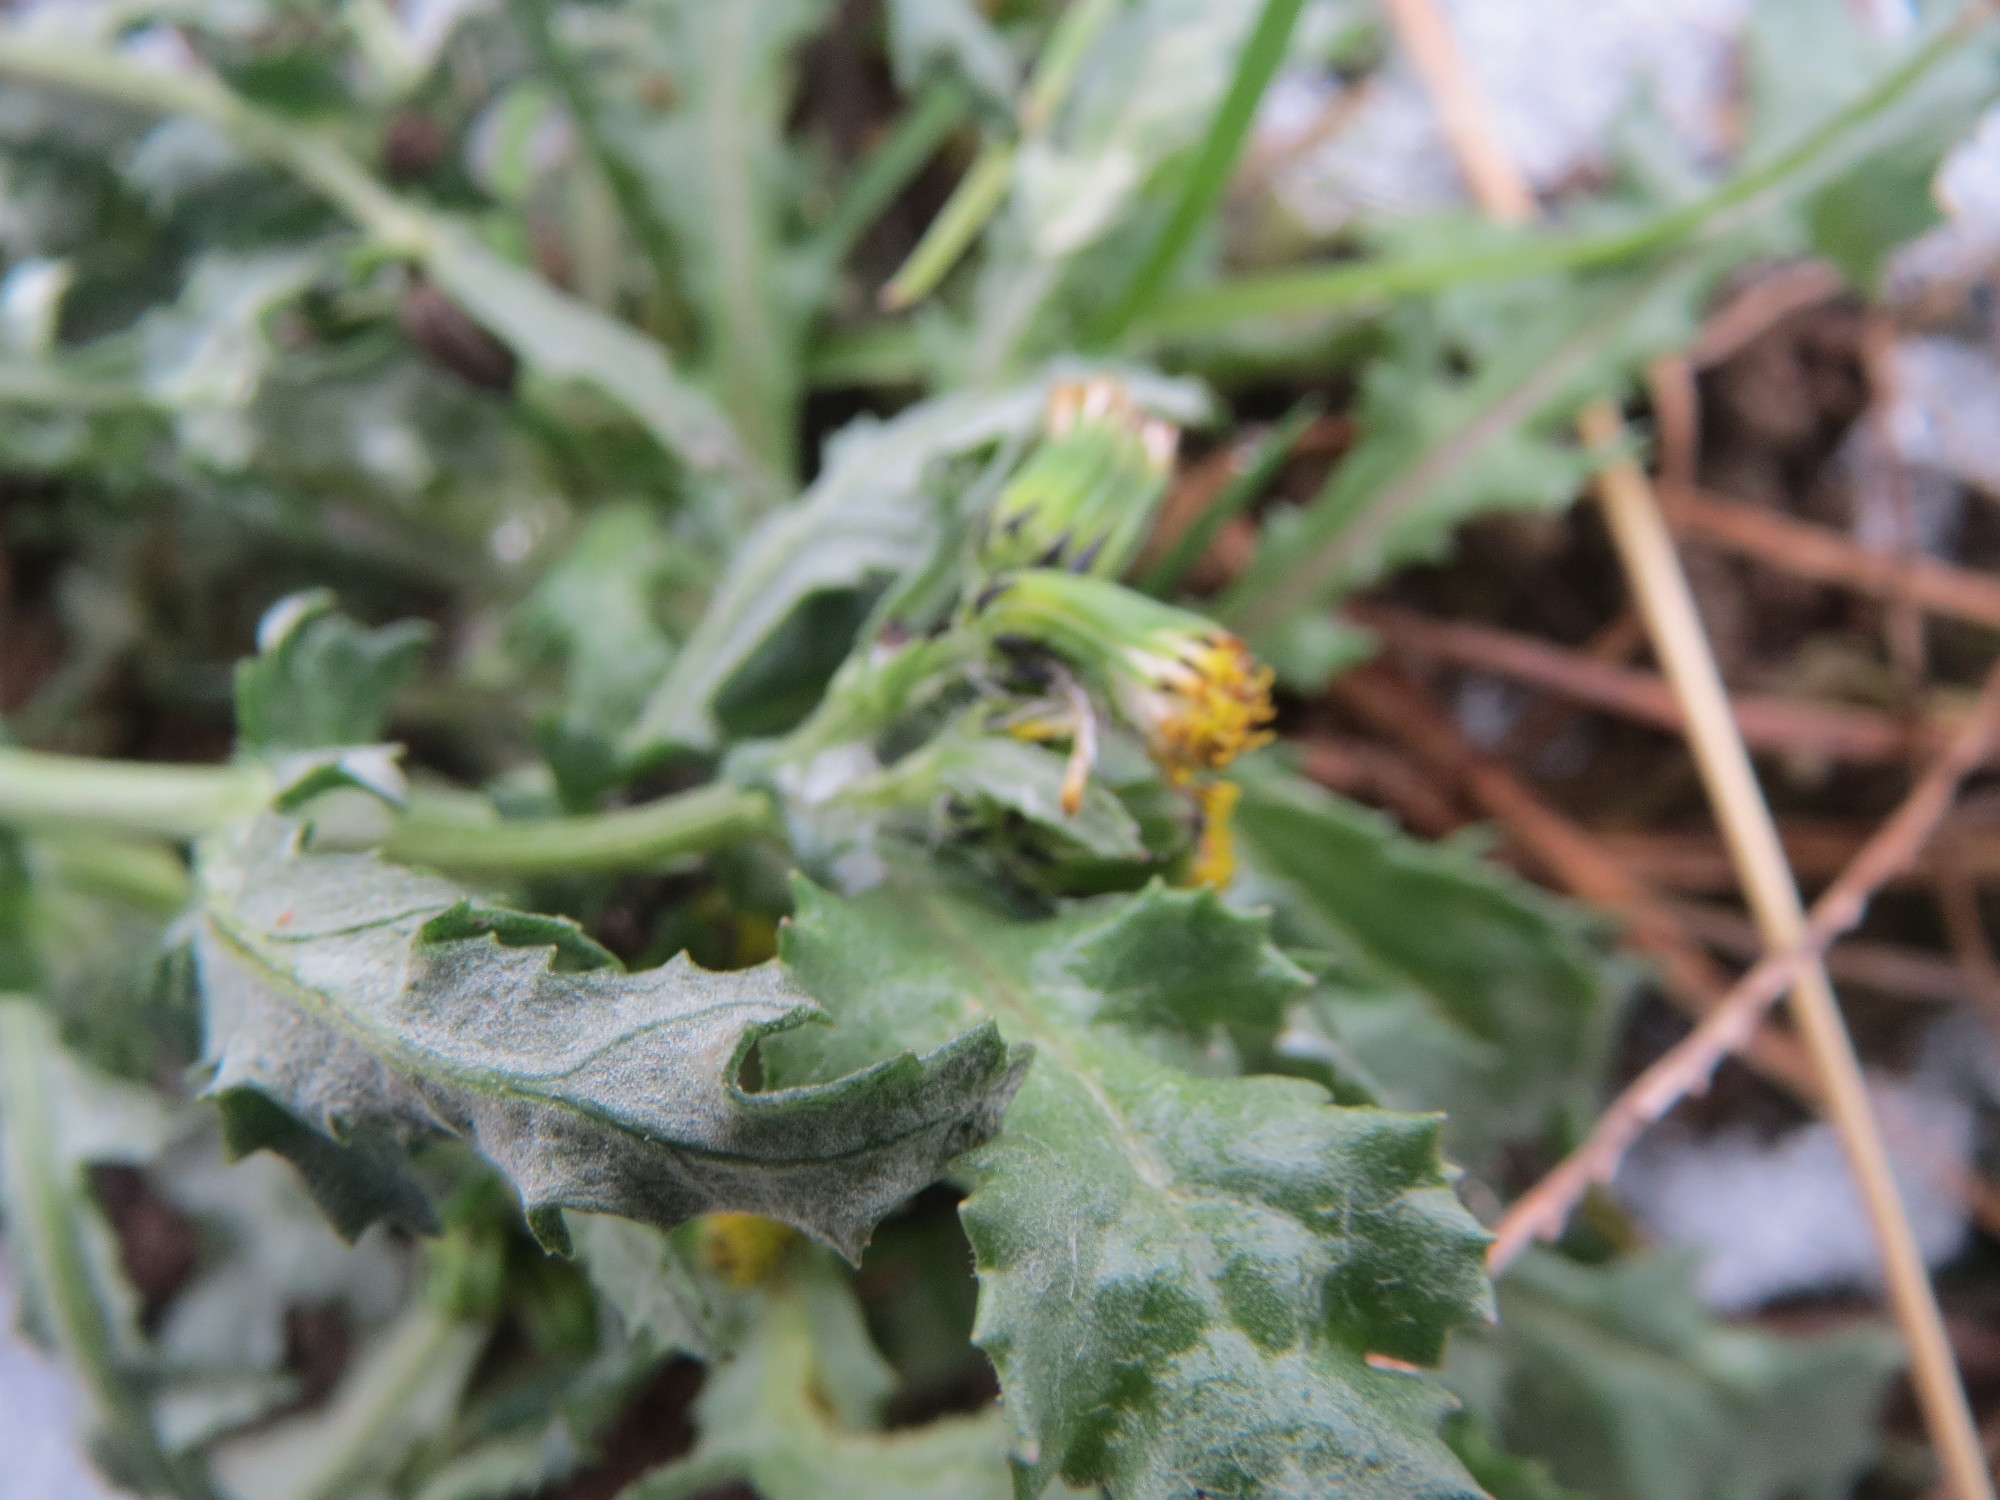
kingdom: Plantae
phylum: Tracheophyta
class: Magnoliopsida
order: Asterales
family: Asteraceae
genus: Senecio
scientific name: Senecio vulgaris
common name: Old-man-in-the-spring
